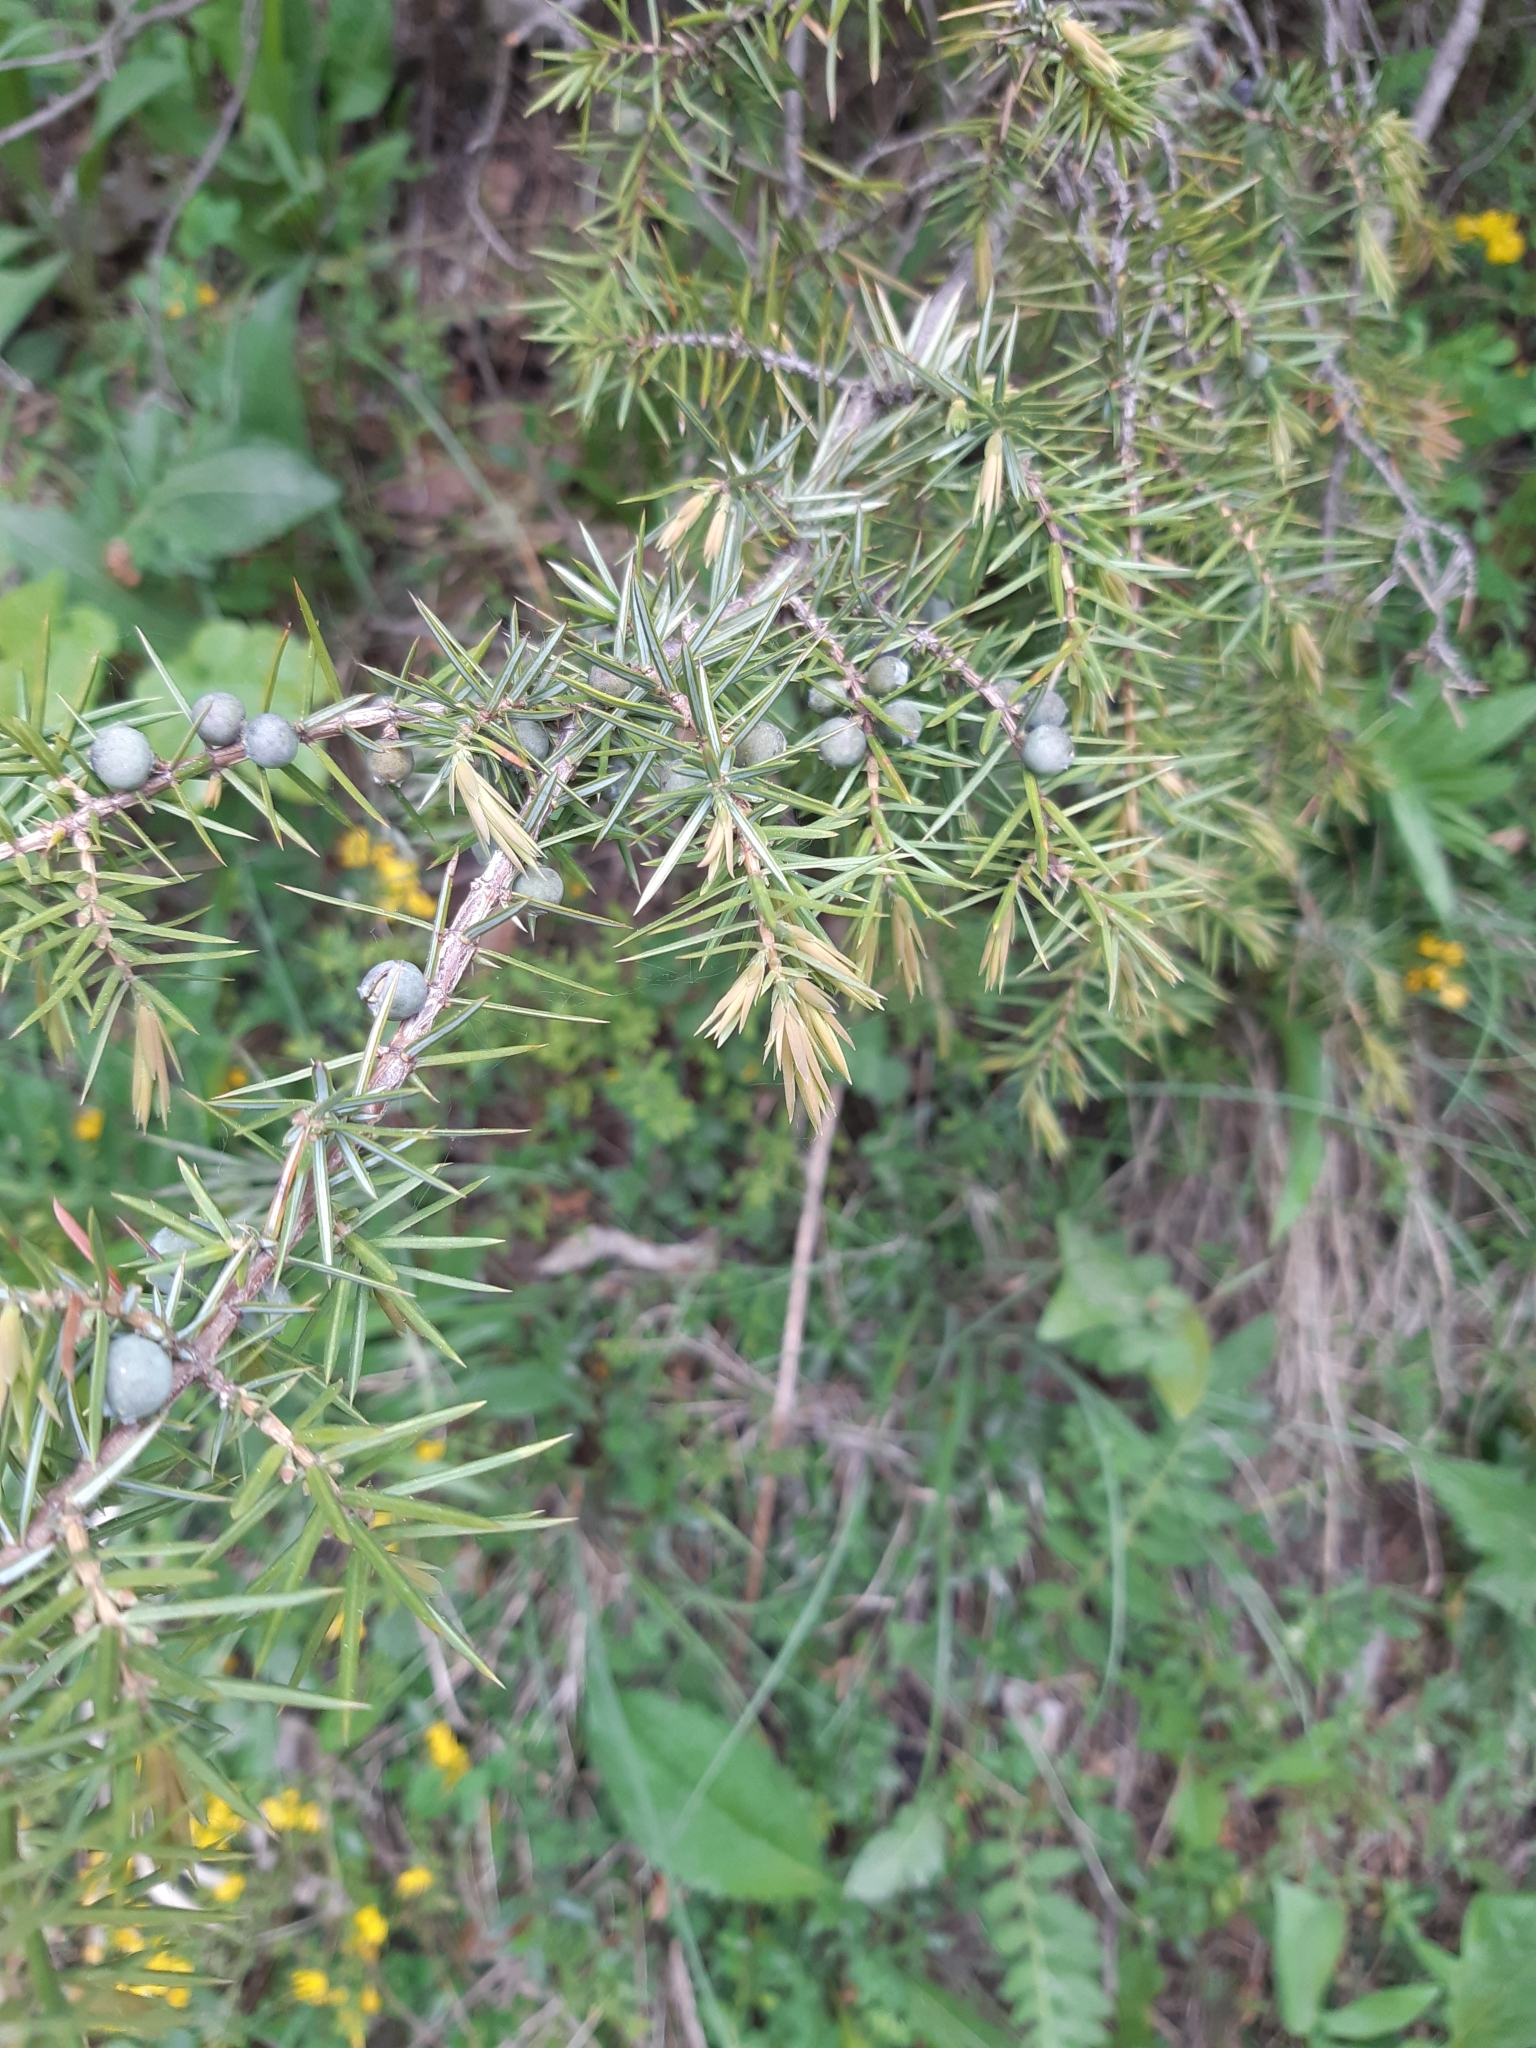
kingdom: Plantae
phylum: Tracheophyta
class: Pinopsida
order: Pinales
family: Cupressaceae
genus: Juniperus
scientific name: Juniperus communis
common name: Common juniper
